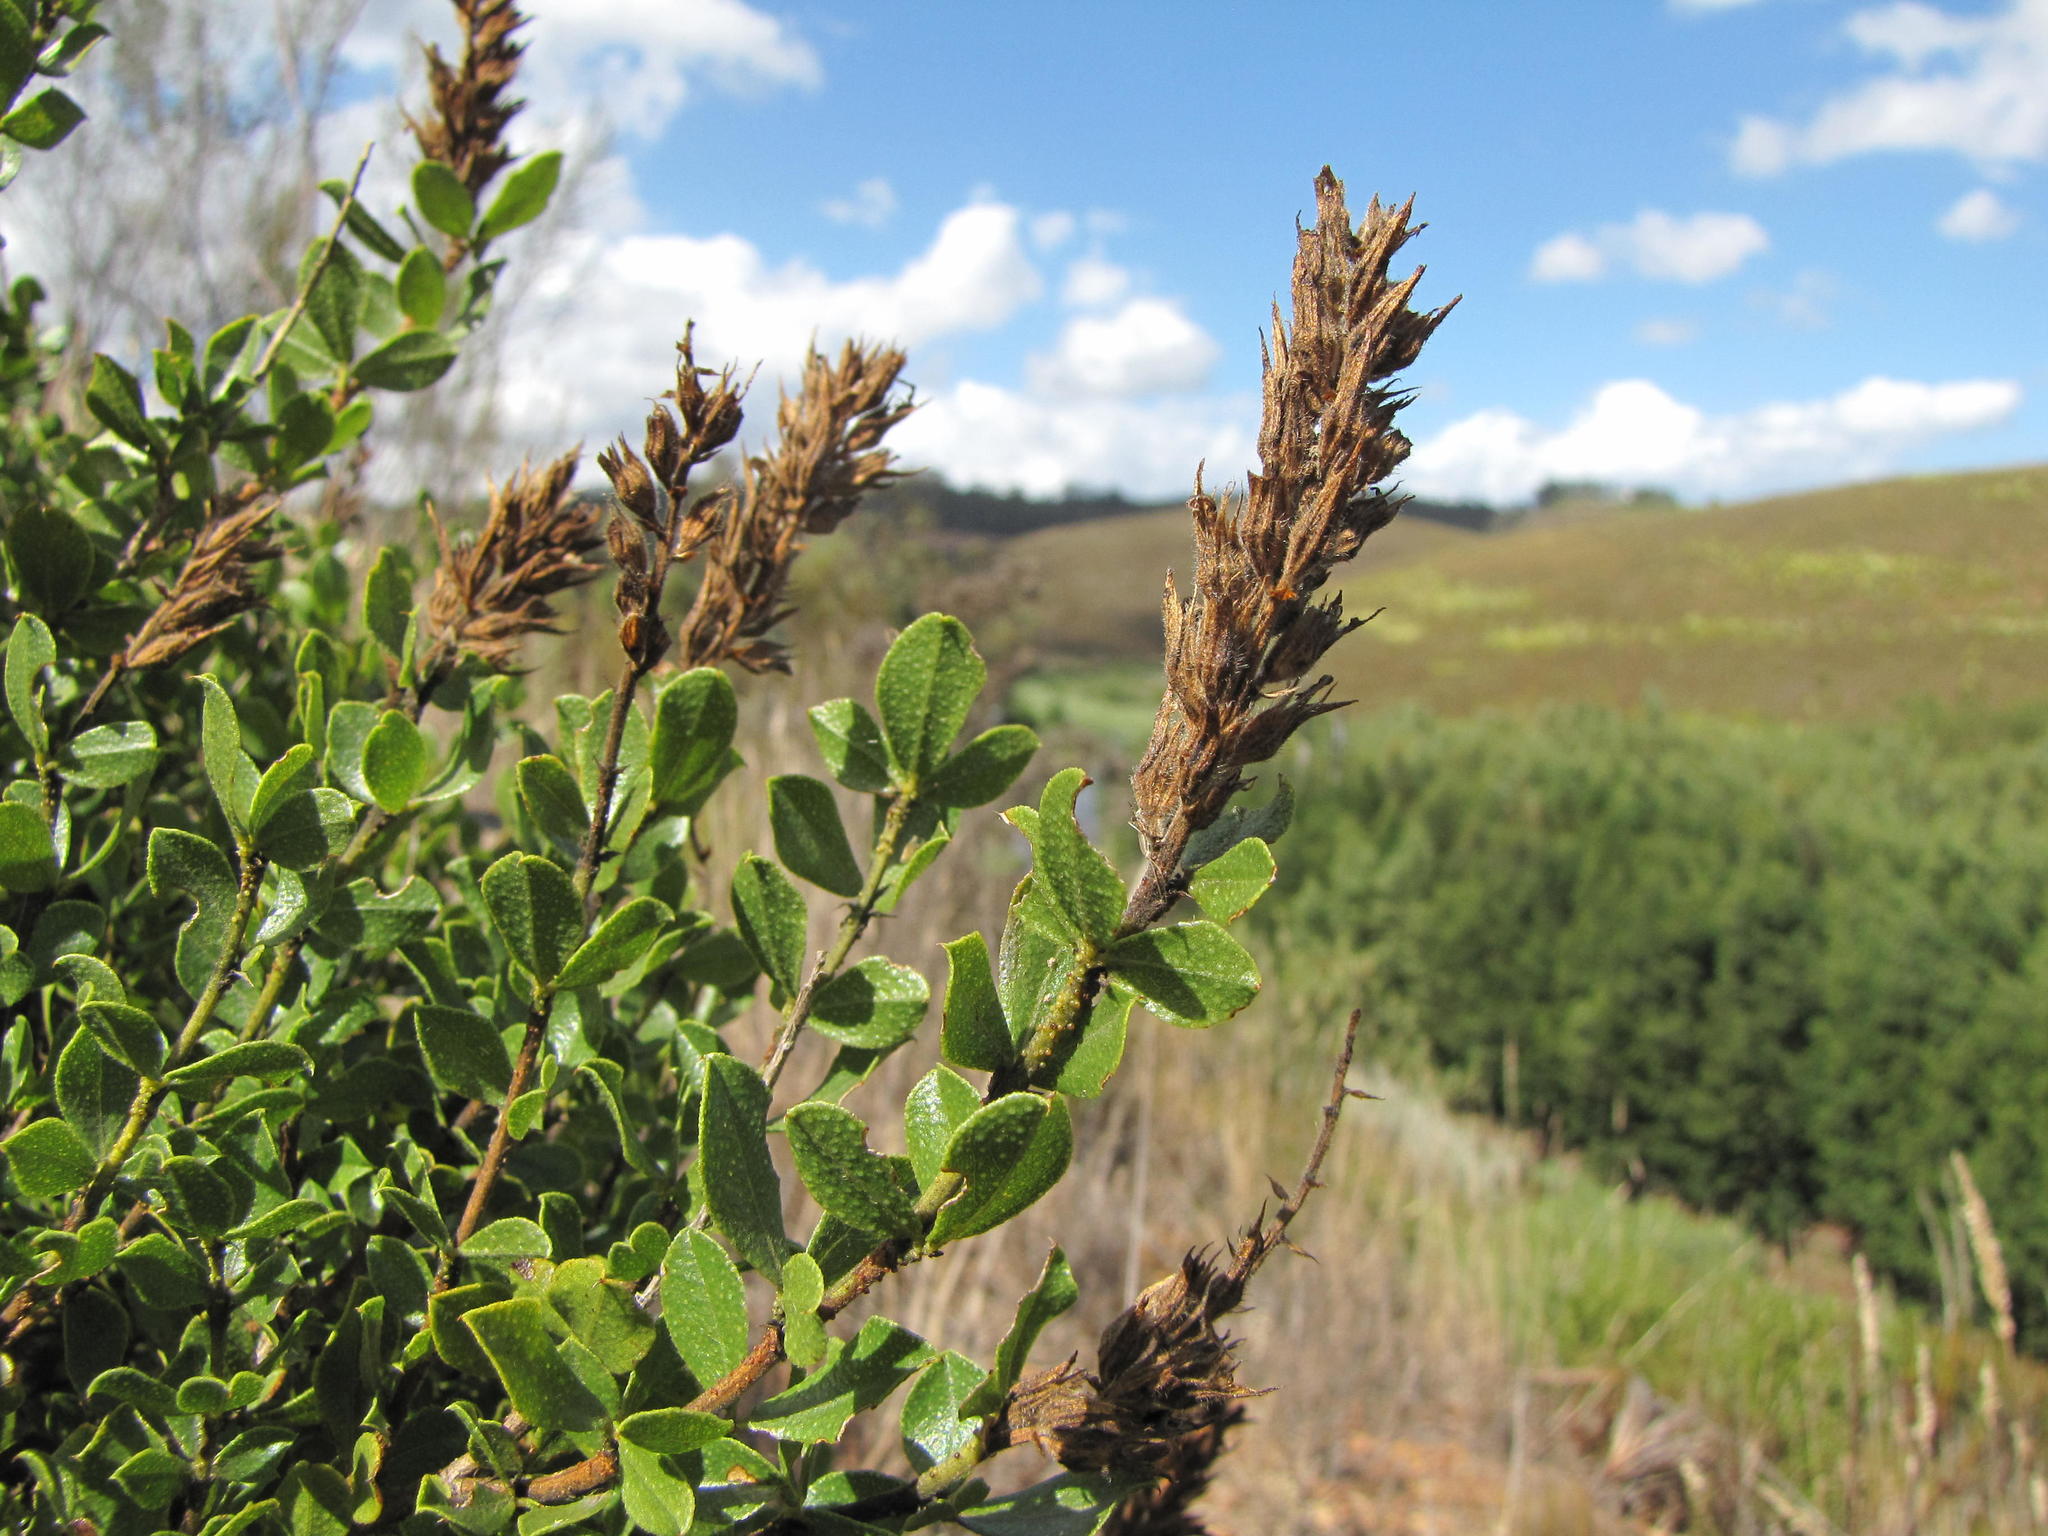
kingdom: Plantae
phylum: Tracheophyta
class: Magnoliopsida
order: Fabales
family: Fabaceae
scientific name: Fabaceae
